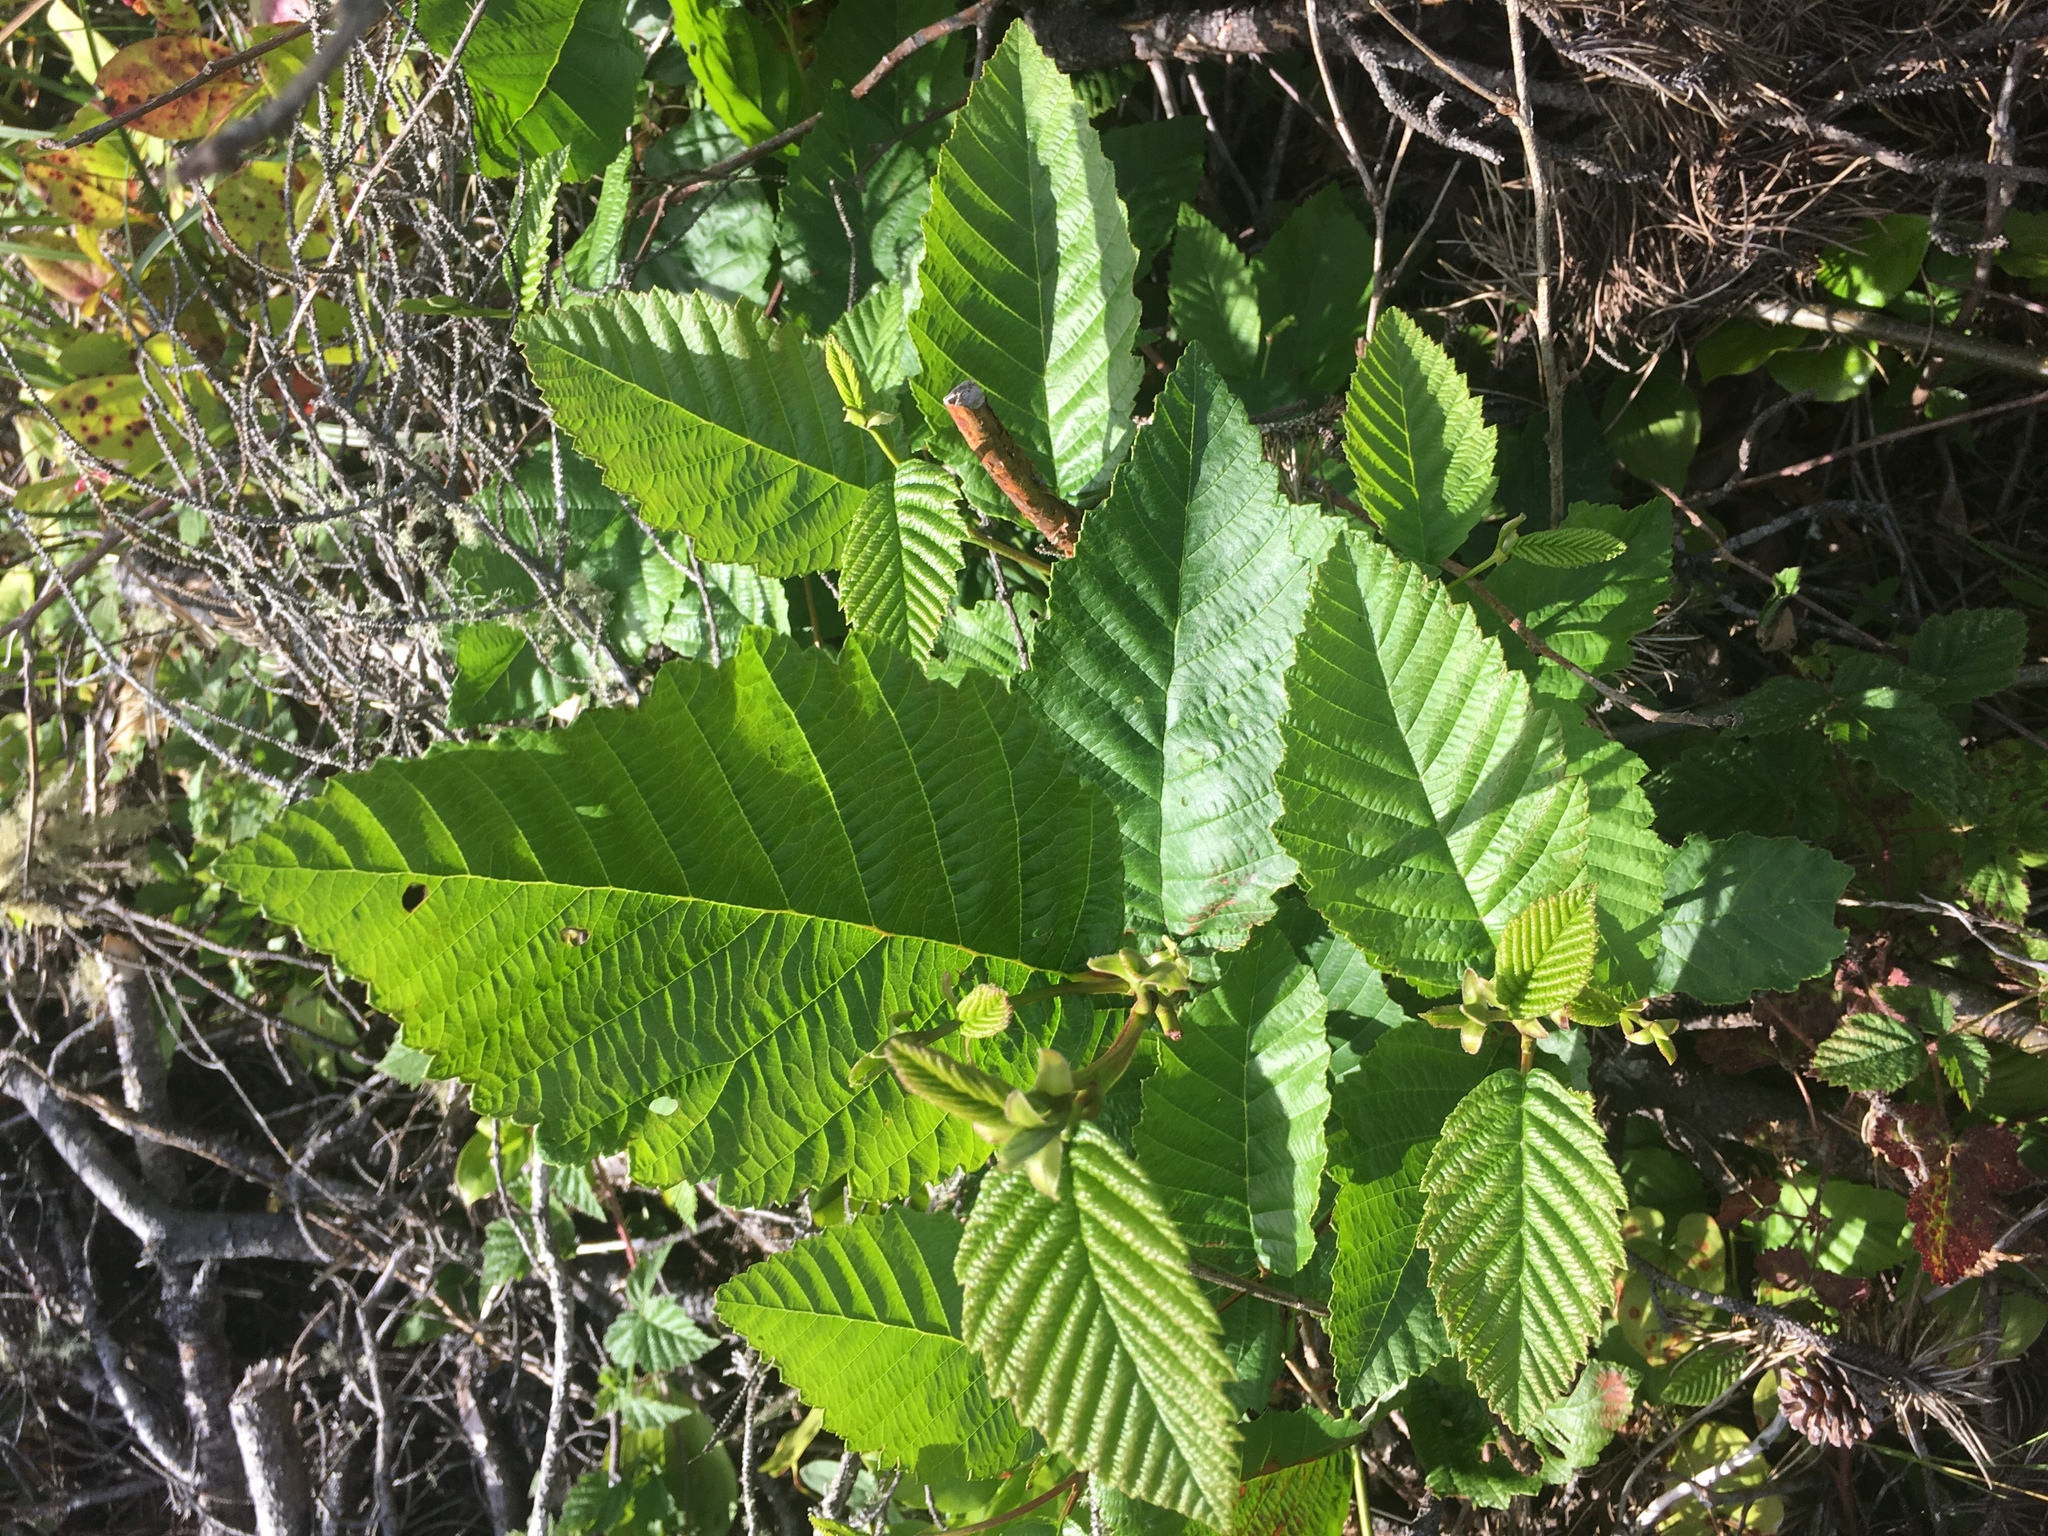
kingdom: Plantae
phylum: Tracheophyta
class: Magnoliopsida
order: Fagales
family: Betulaceae
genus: Alnus
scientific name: Alnus rubra
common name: Red alder
